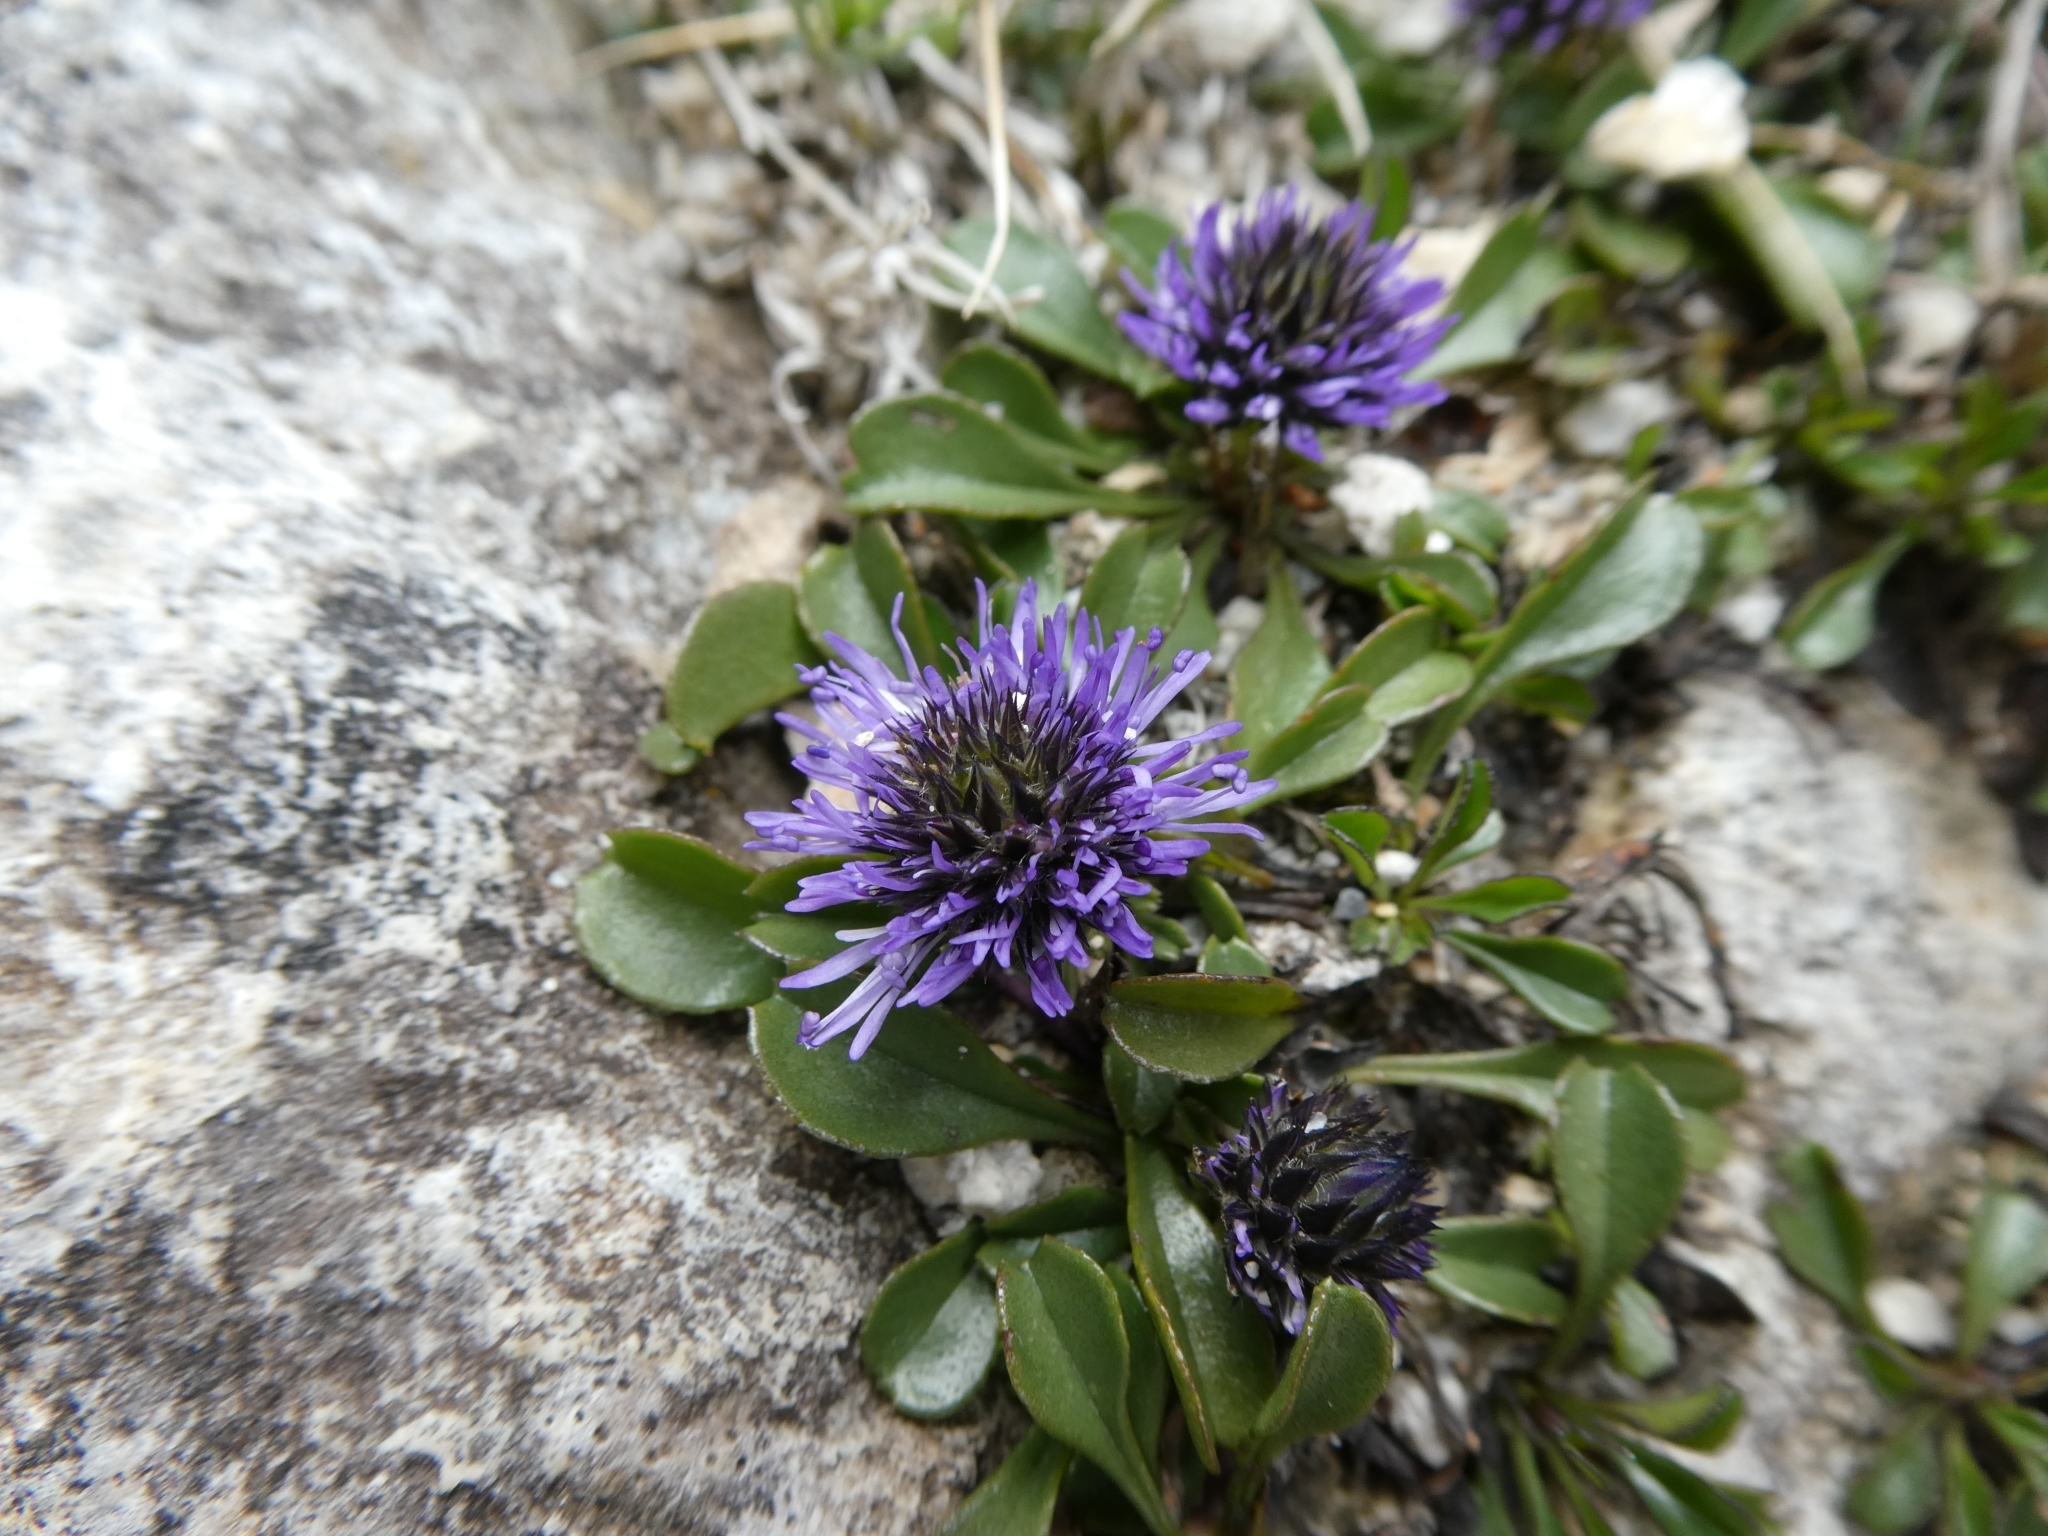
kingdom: Plantae
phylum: Tracheophyta
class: Magnoliopsida
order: Lamiales
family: Plantaginaceae
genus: Globularia
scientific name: Globularia cordifolia
